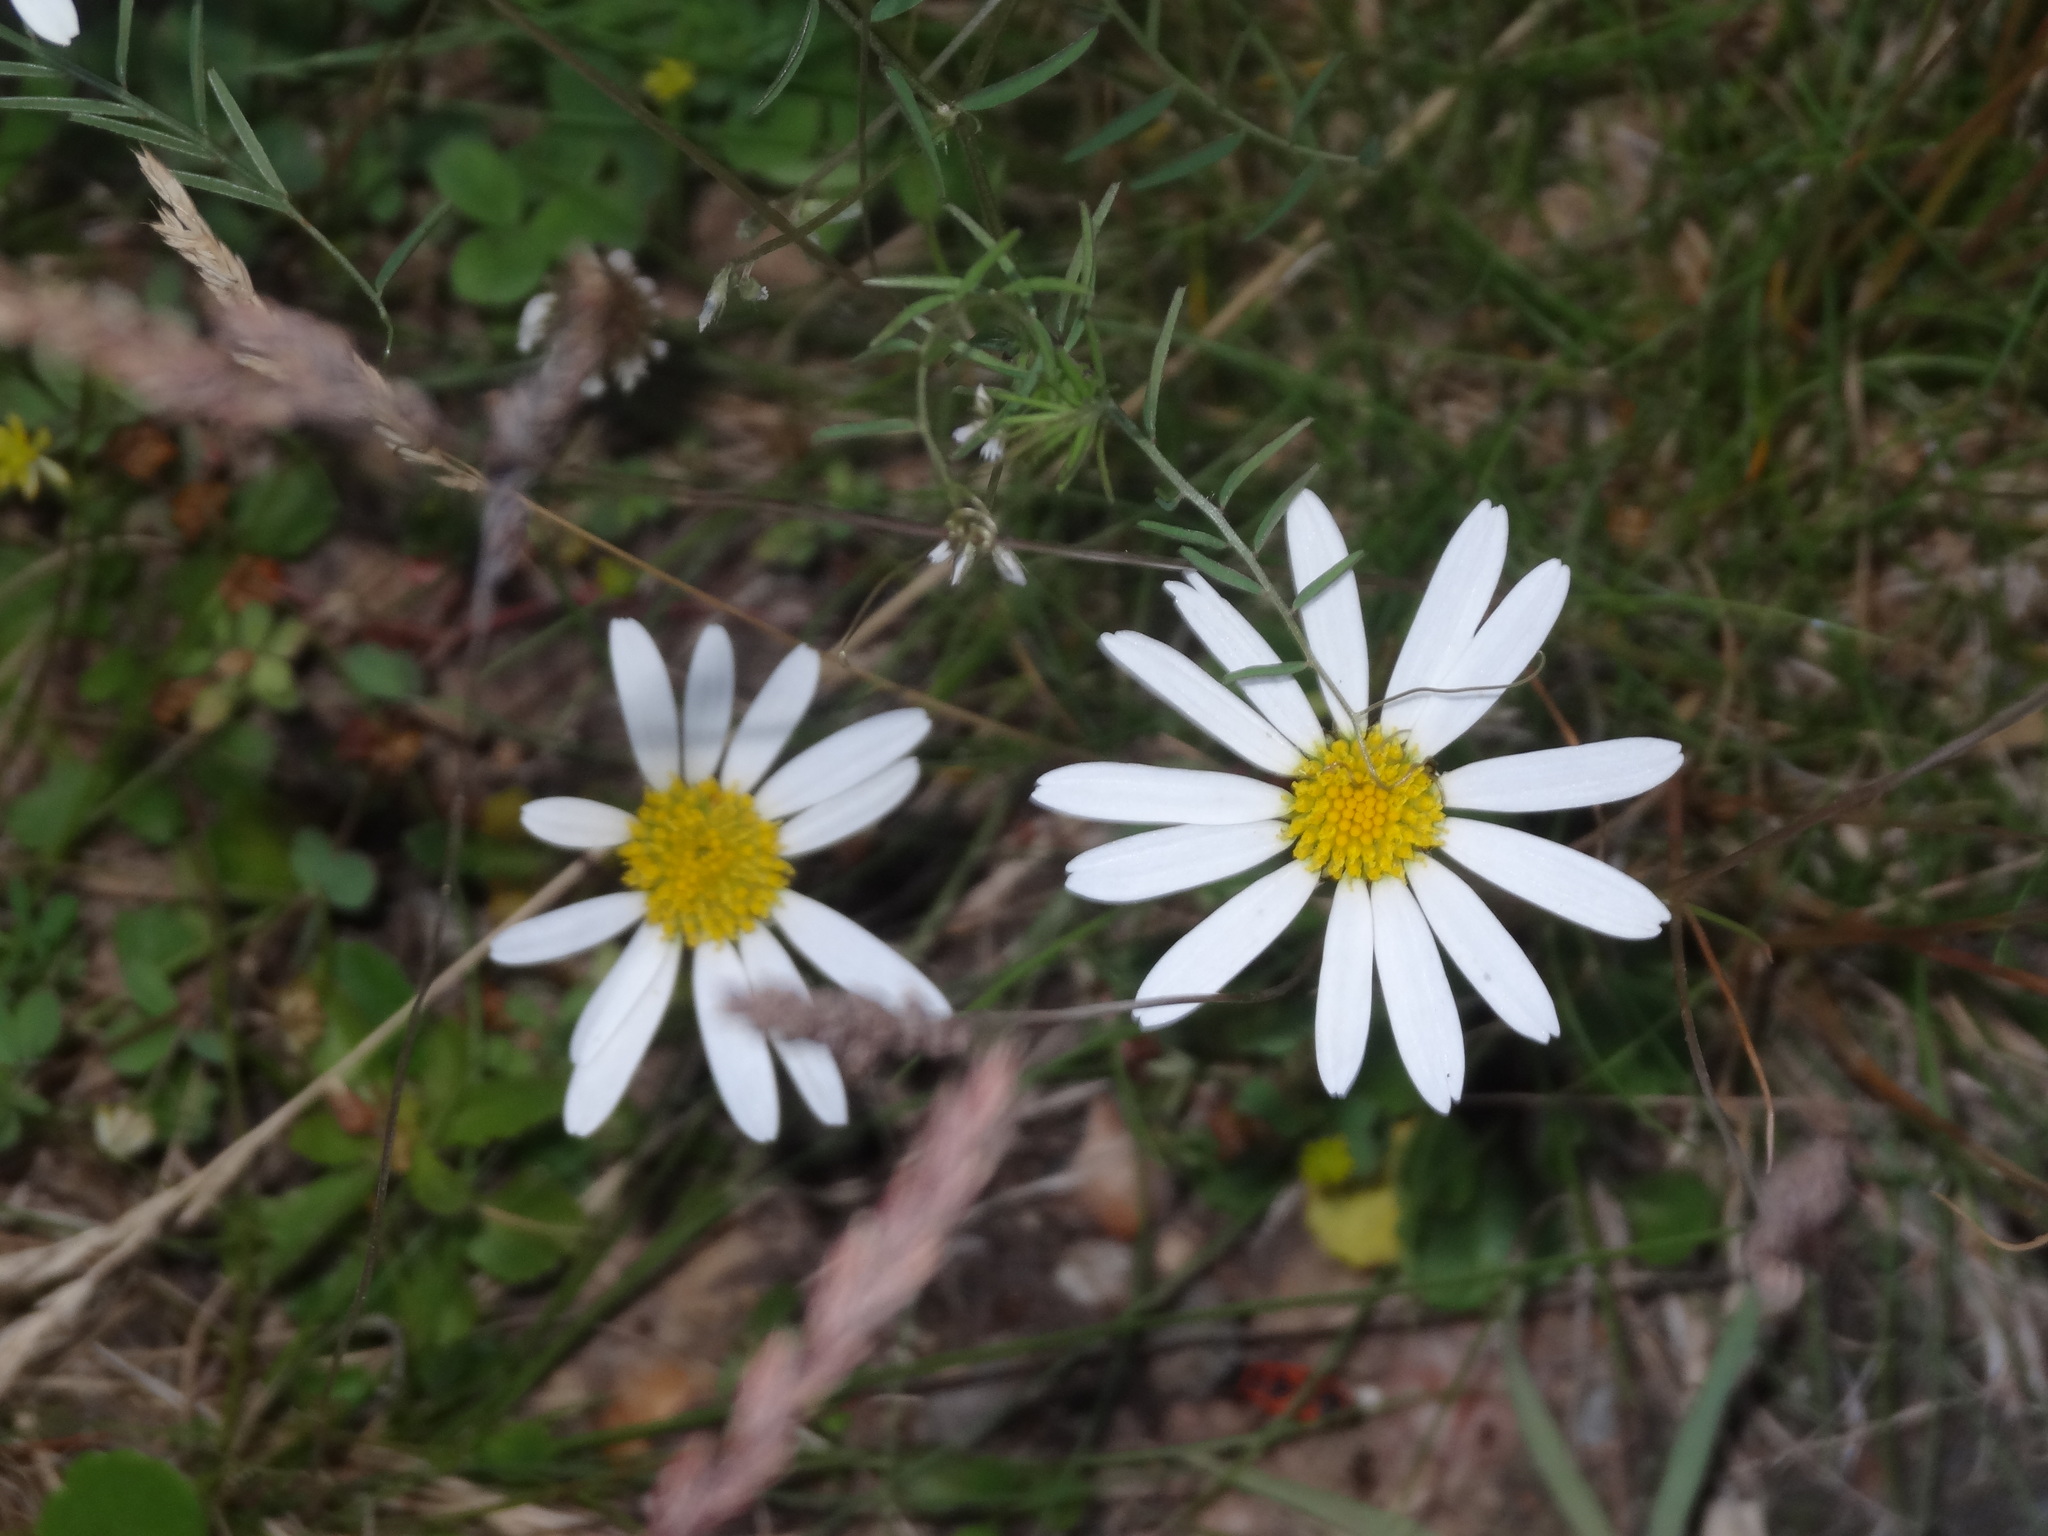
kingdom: Plantae
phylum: Tracheophyta
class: Magnoliopsida
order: Asterales
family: Asteraceae
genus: Tripleurospermum
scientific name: Tripleurospermum inodorum
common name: Scentless mayweed
